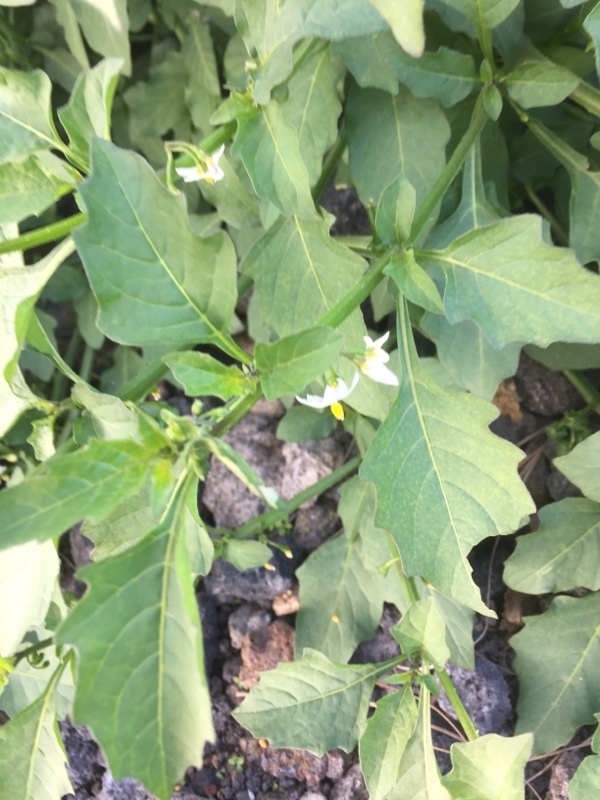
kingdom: Plantae
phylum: Tracheophyta
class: Magnoliopsida
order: Solanales
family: Solanaceae
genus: Solanum
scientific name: Solanum nigrum
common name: Black nightshade
